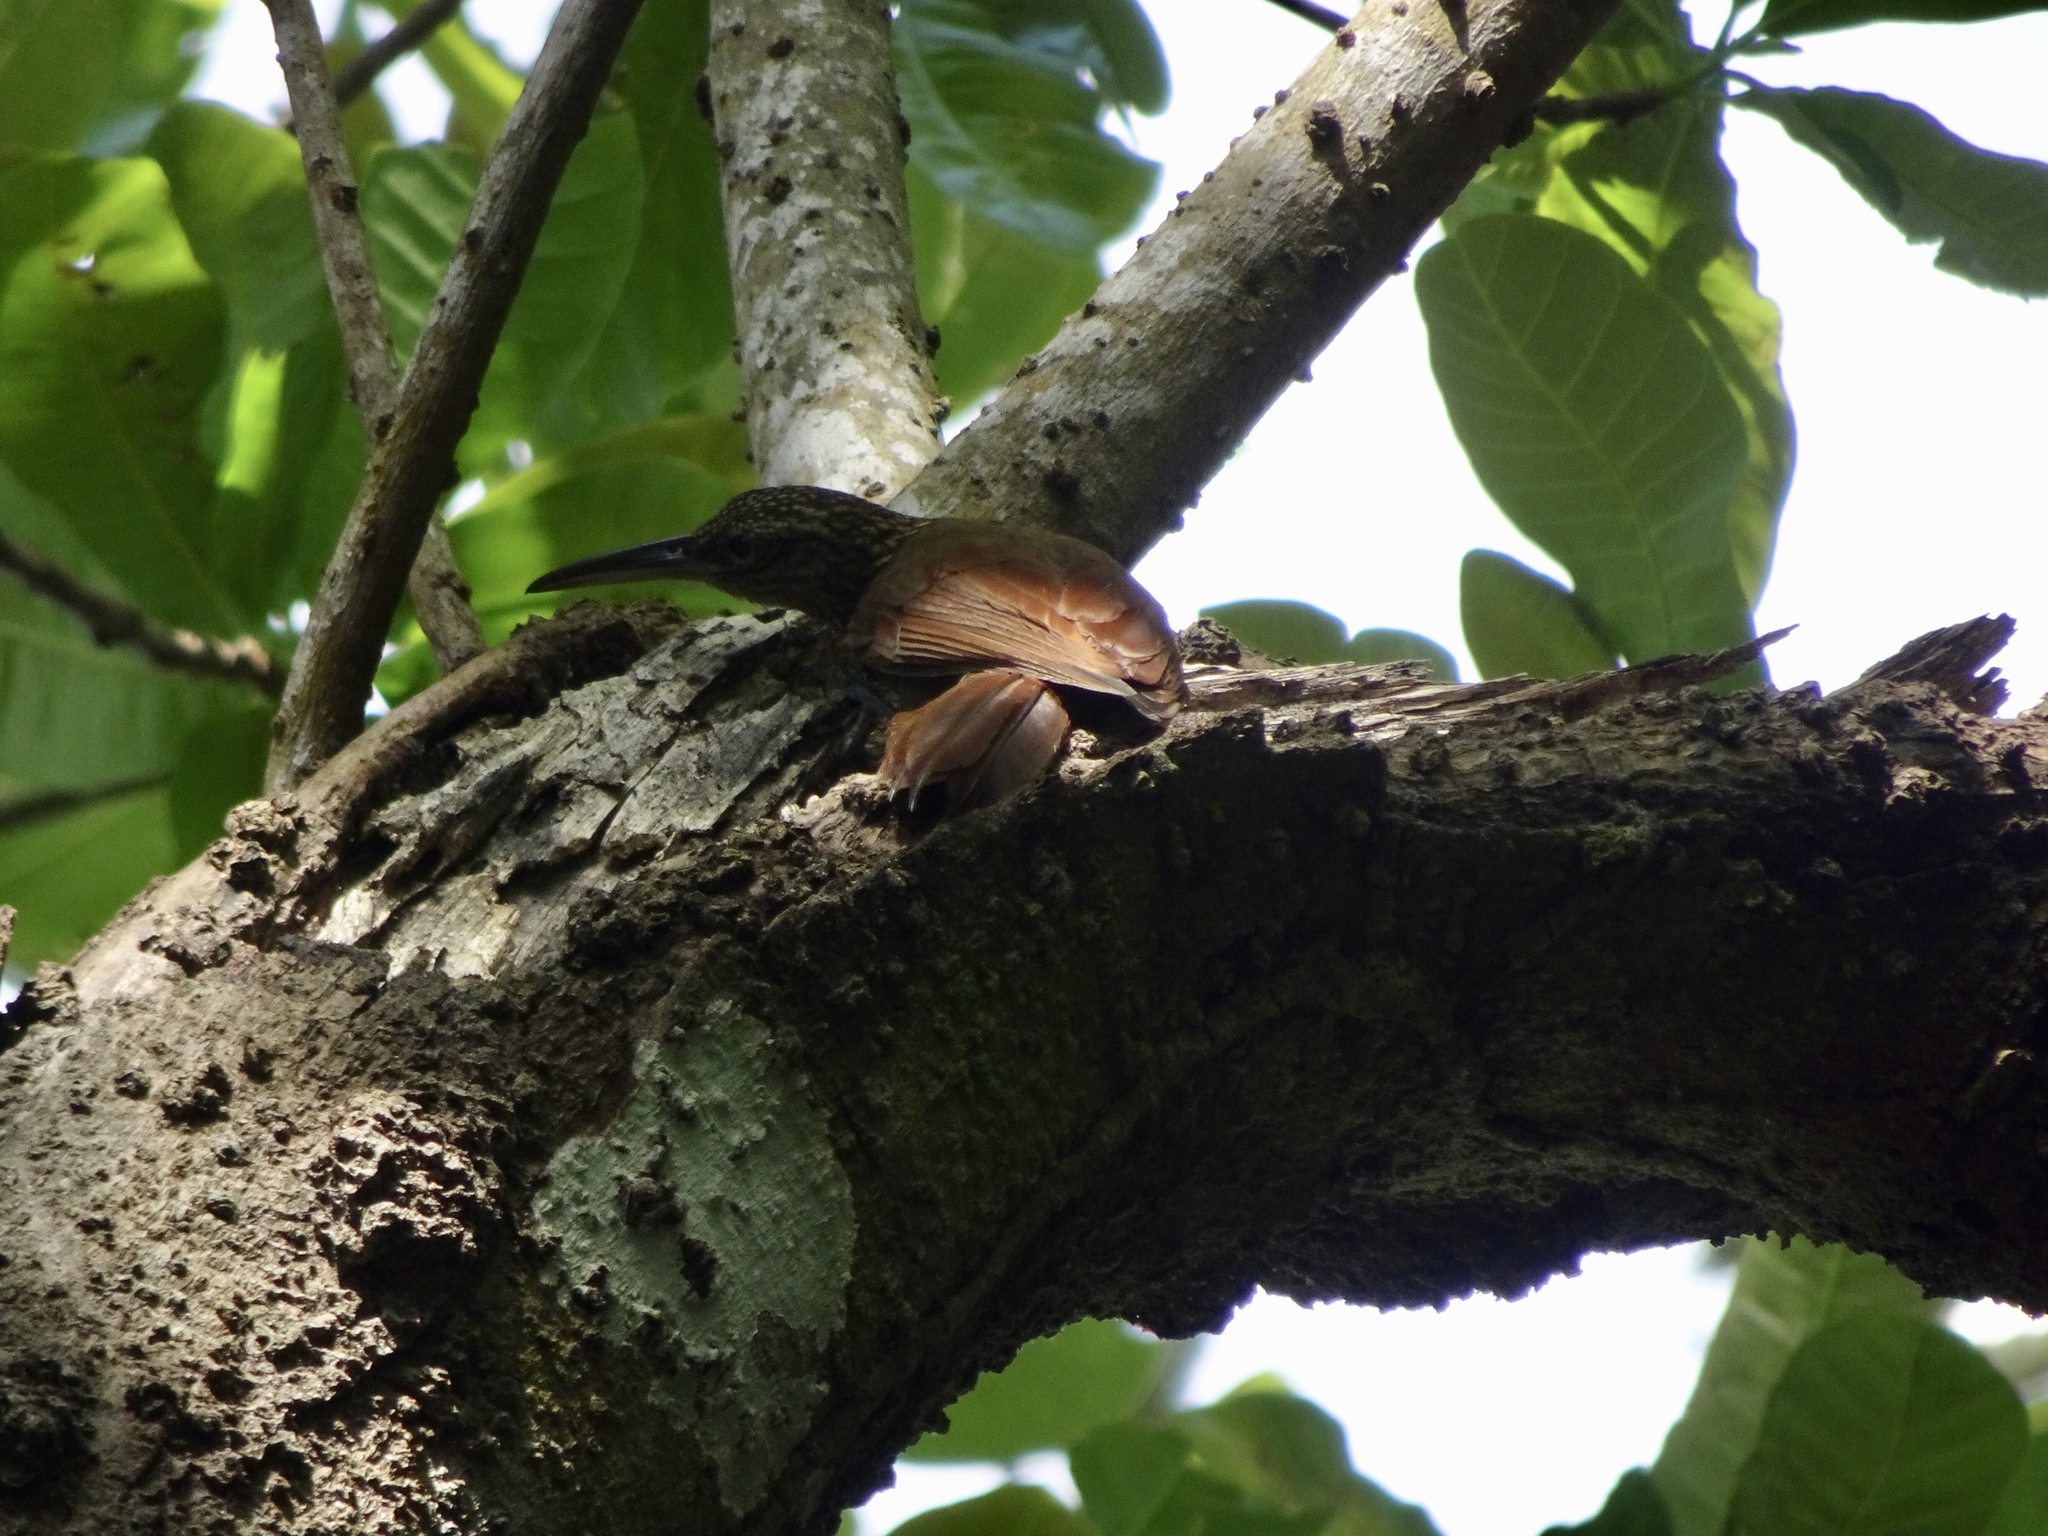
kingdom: Animalia
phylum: Chordata
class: Aves
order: Passeriformes
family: Furnariidae
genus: Xiphorhynchus
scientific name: Xiphorhynchus susurrans
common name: Cocoa woodcreeper
